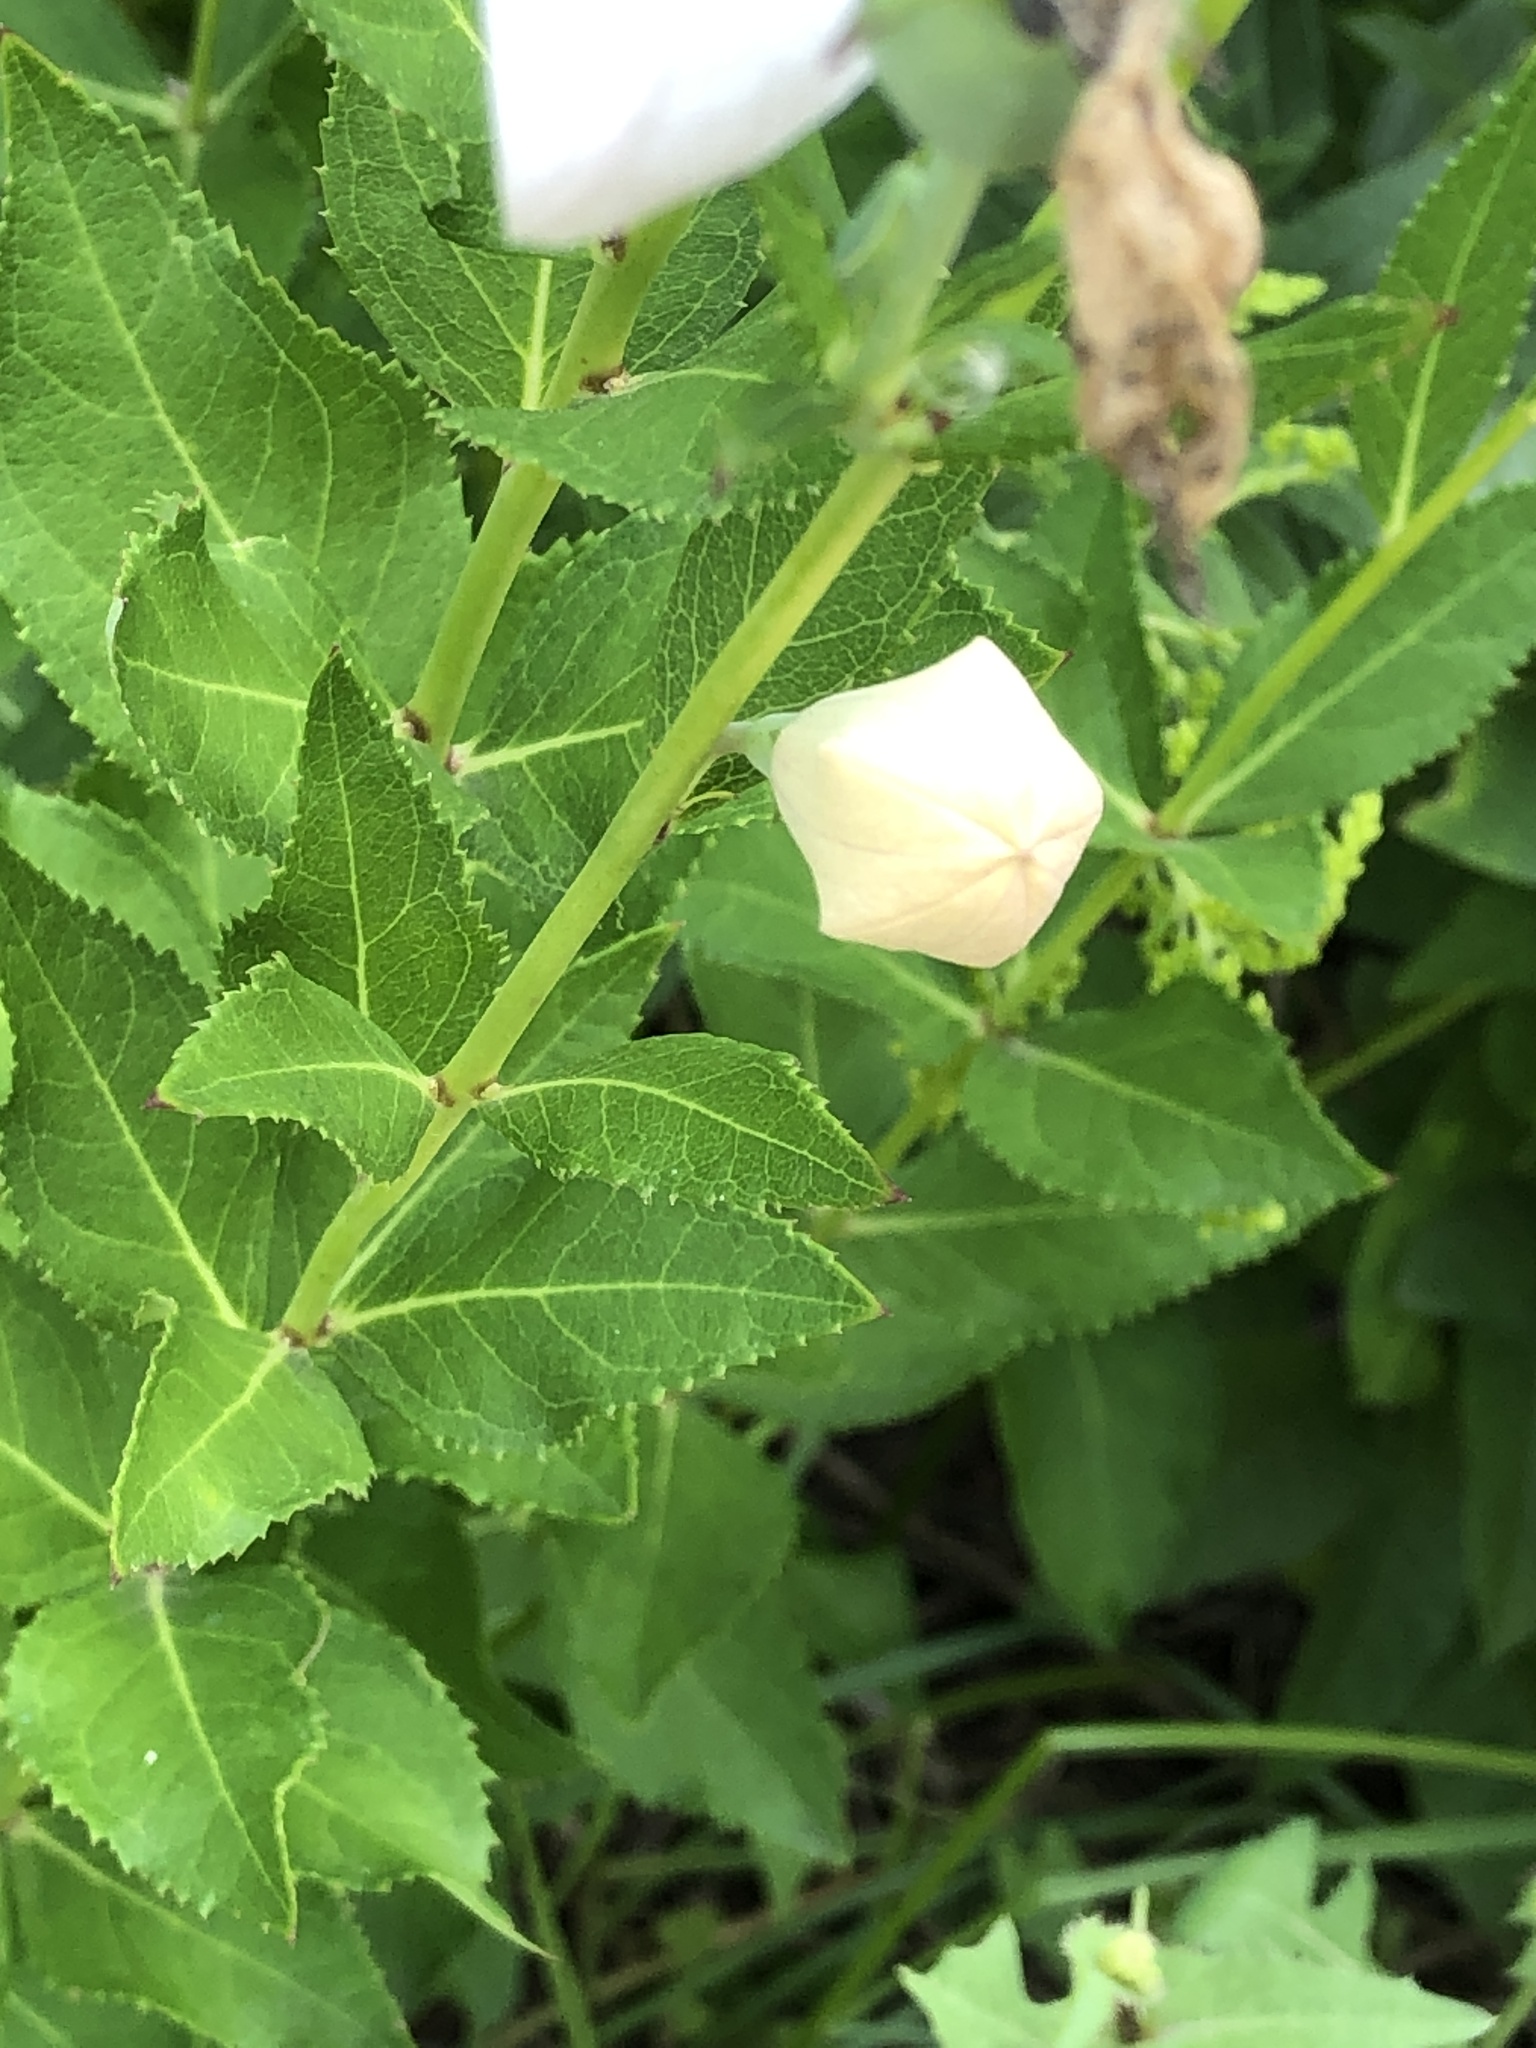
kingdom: Plantae
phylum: Tracheophyta
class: Magnoliopsida
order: Asterales
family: Campanulaceae
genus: Platycodon
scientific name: Platycodon grandiflorus
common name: Balloon-flower
